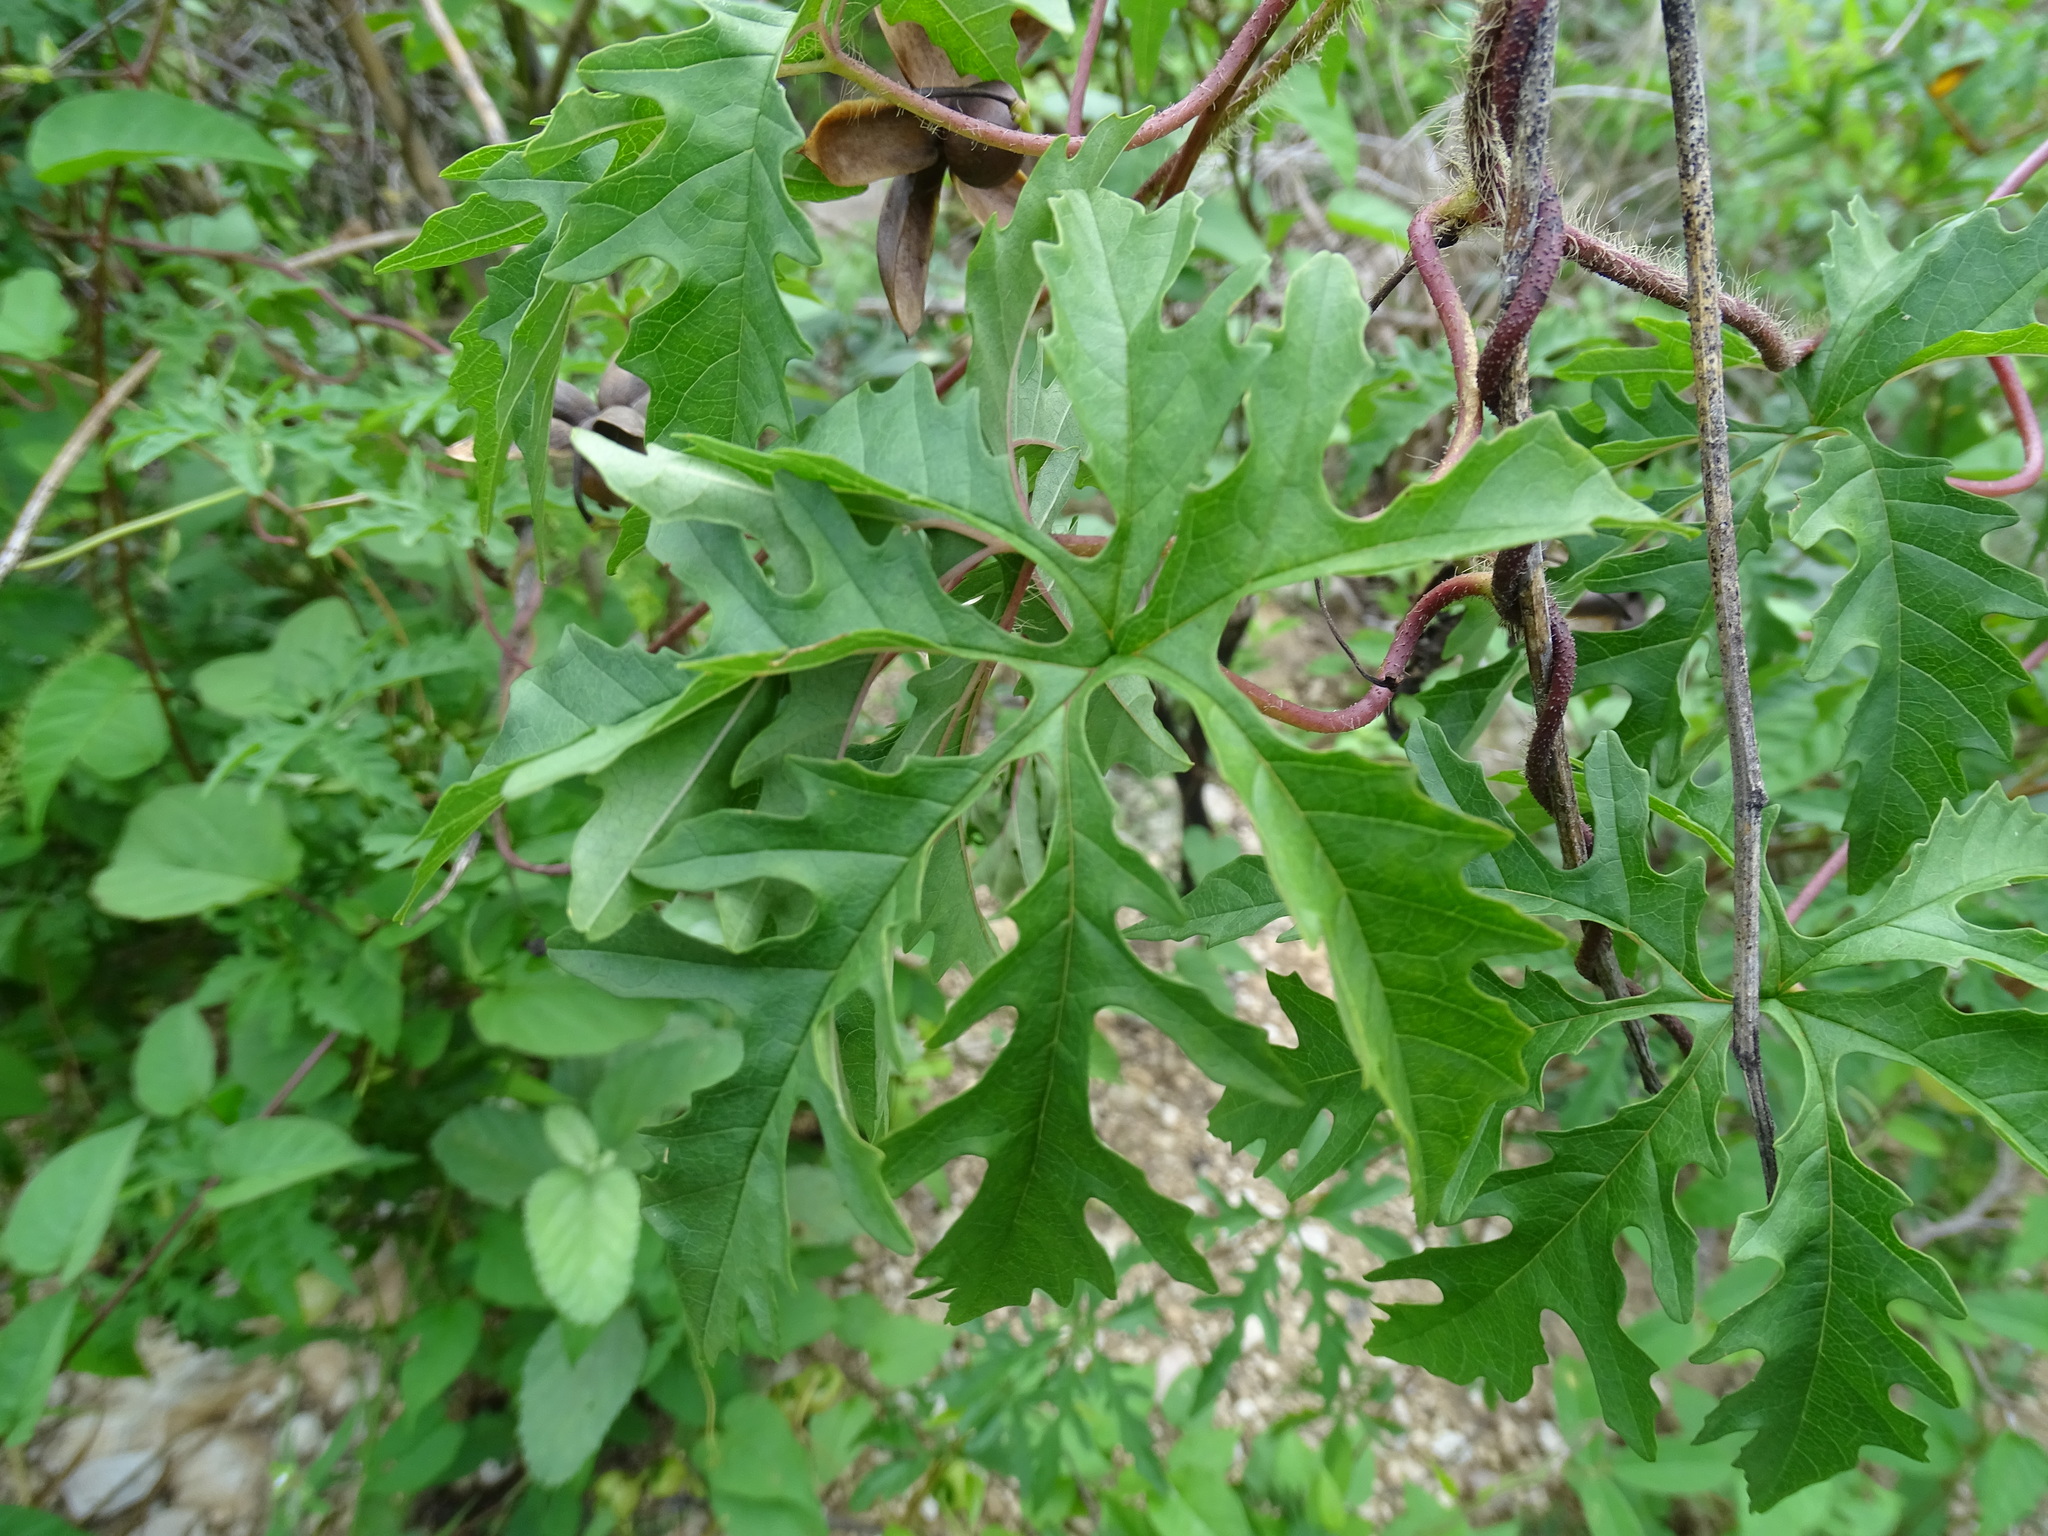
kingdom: Plantae
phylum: Tracheophyta
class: Magnoliopsida
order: Solanales
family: Convolvulaceae
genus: Distimake
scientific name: Distimake dissectus
